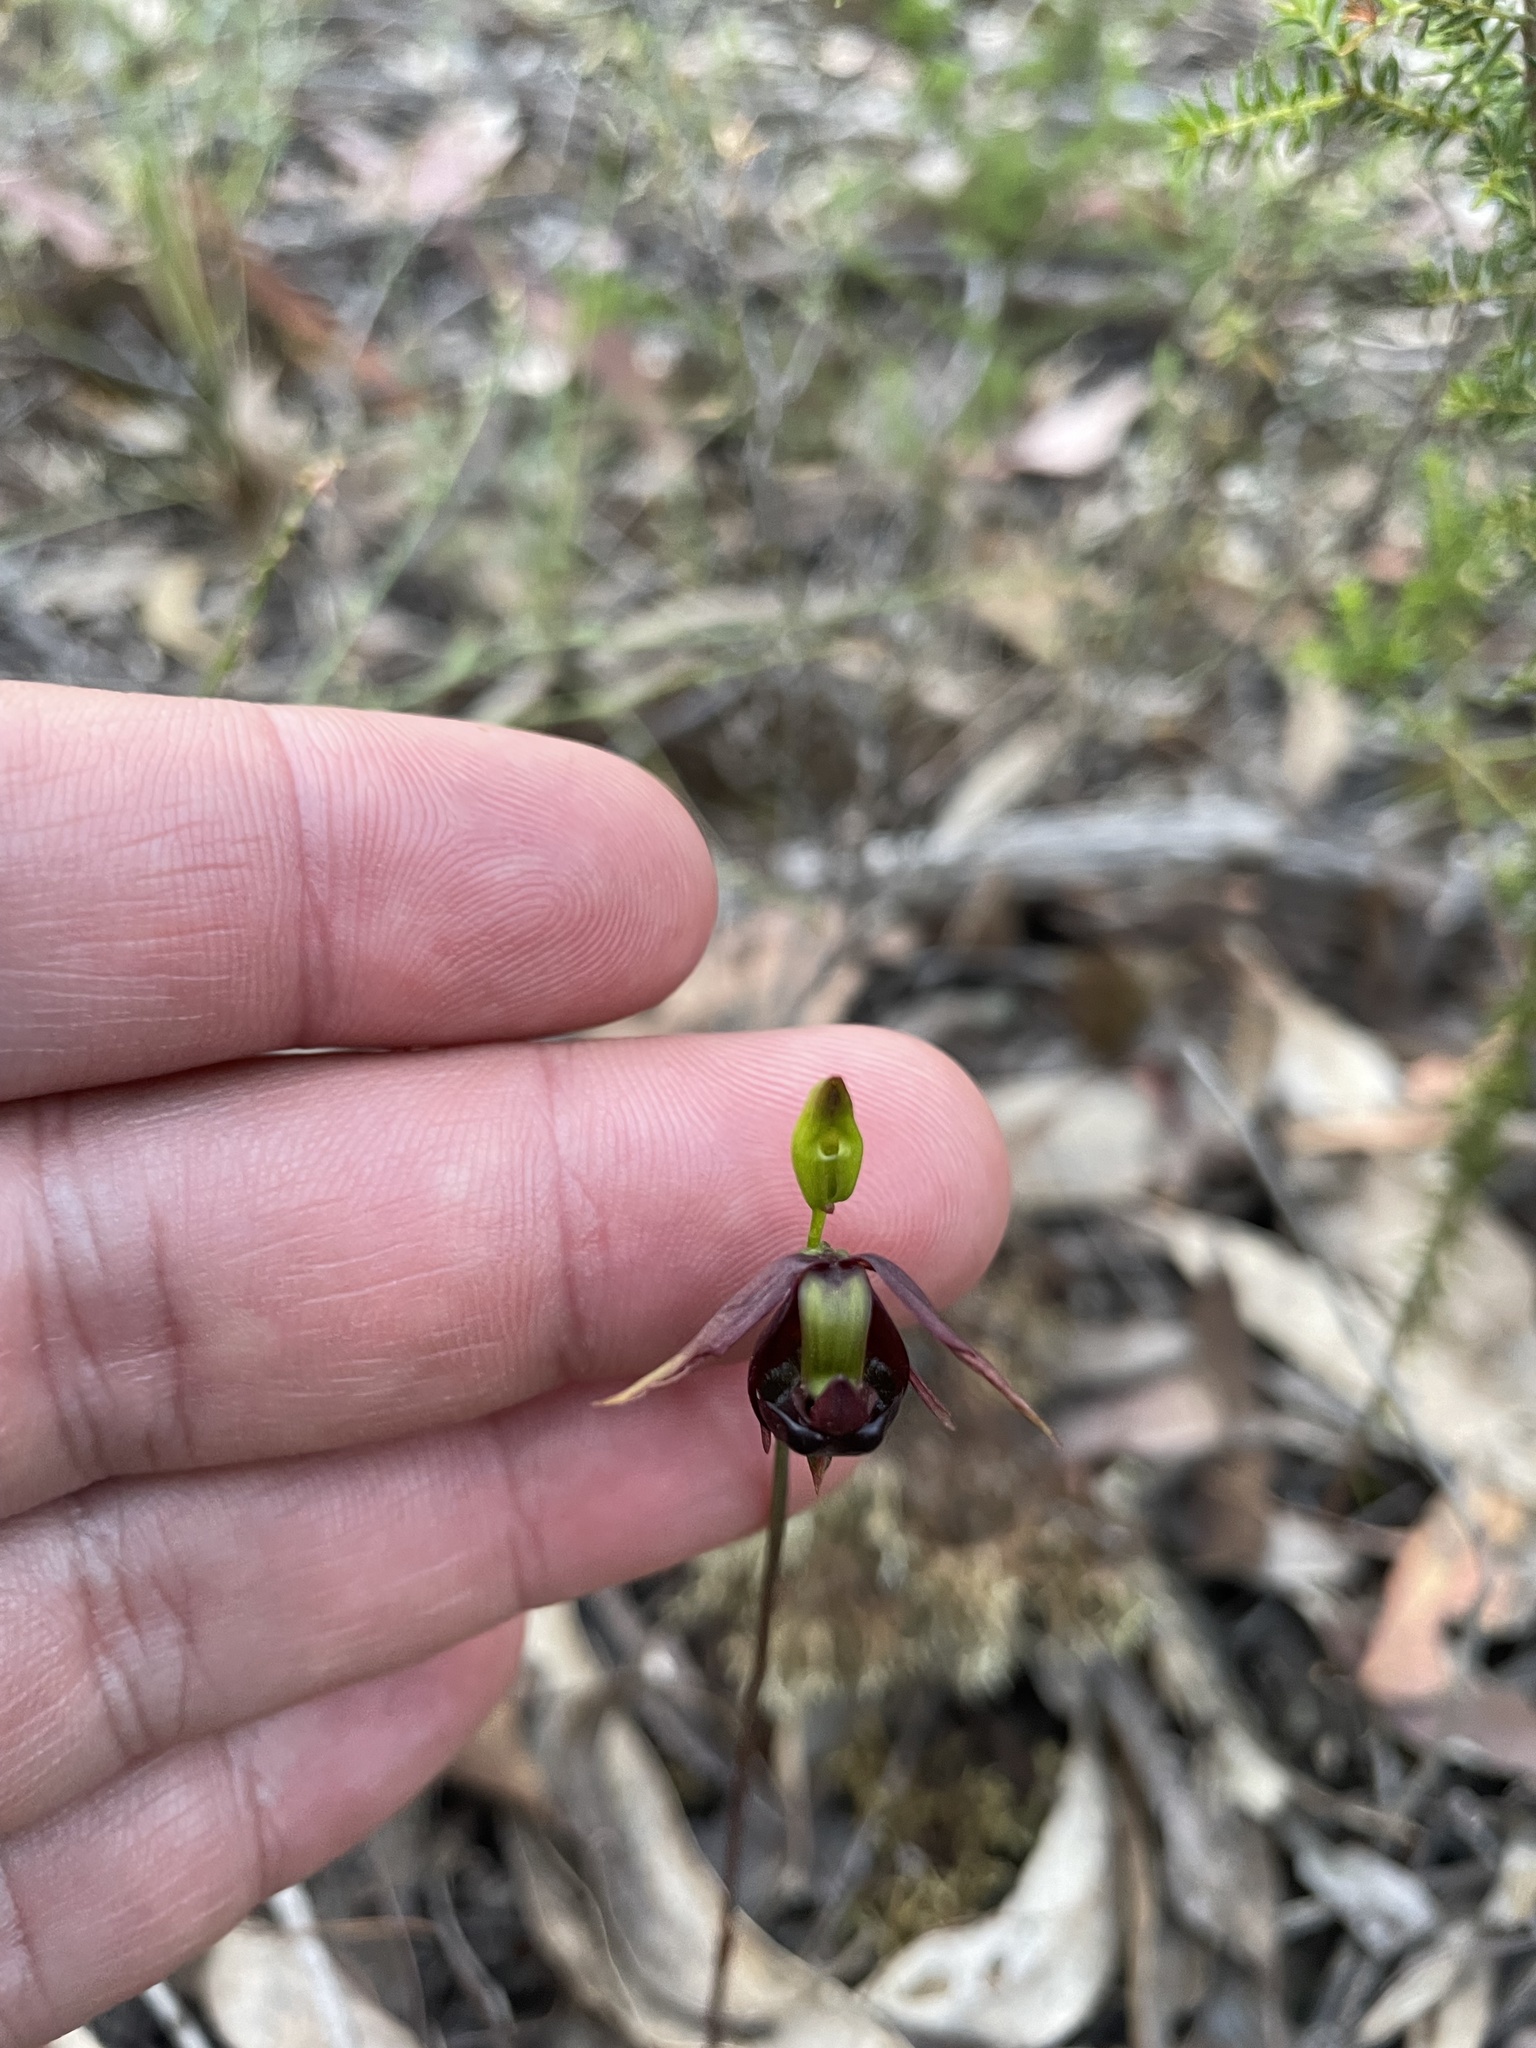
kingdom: Plantae
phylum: Tracheophyta
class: Liliopsida
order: Asparagales
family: Orchidaceae
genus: Caleana
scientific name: Caleana major
